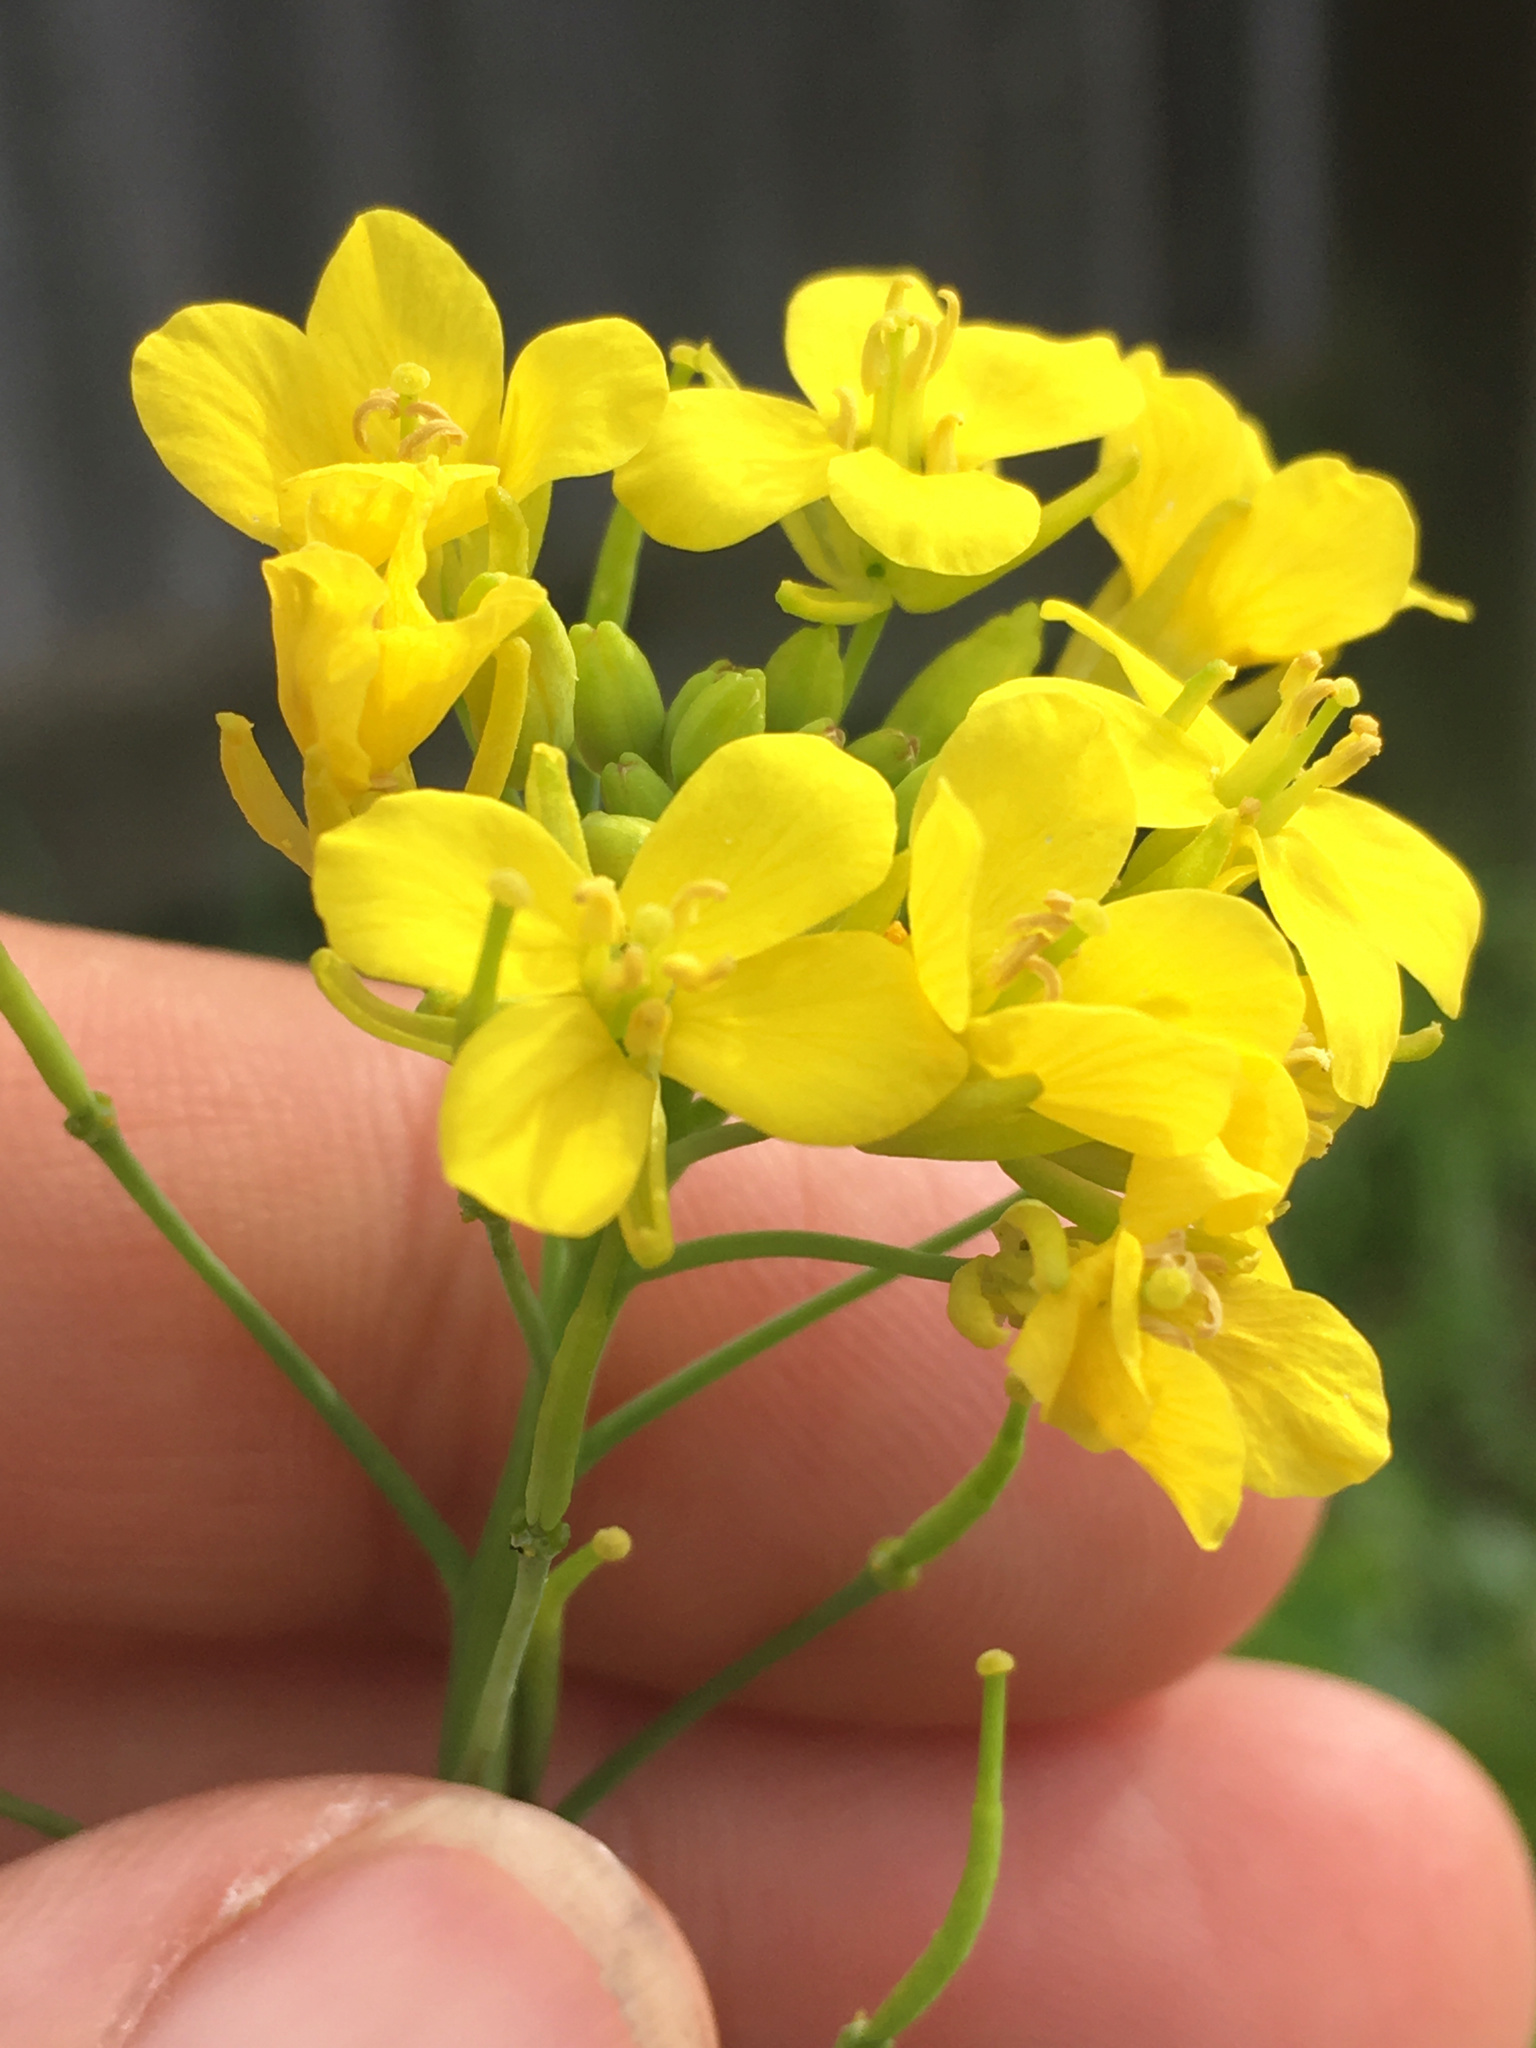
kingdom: Plantae
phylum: Tracheophyta
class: Magnoliopsida
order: Brassicales
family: Brassicaceae
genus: Brassica
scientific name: Brassica rapa
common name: Field mustard
